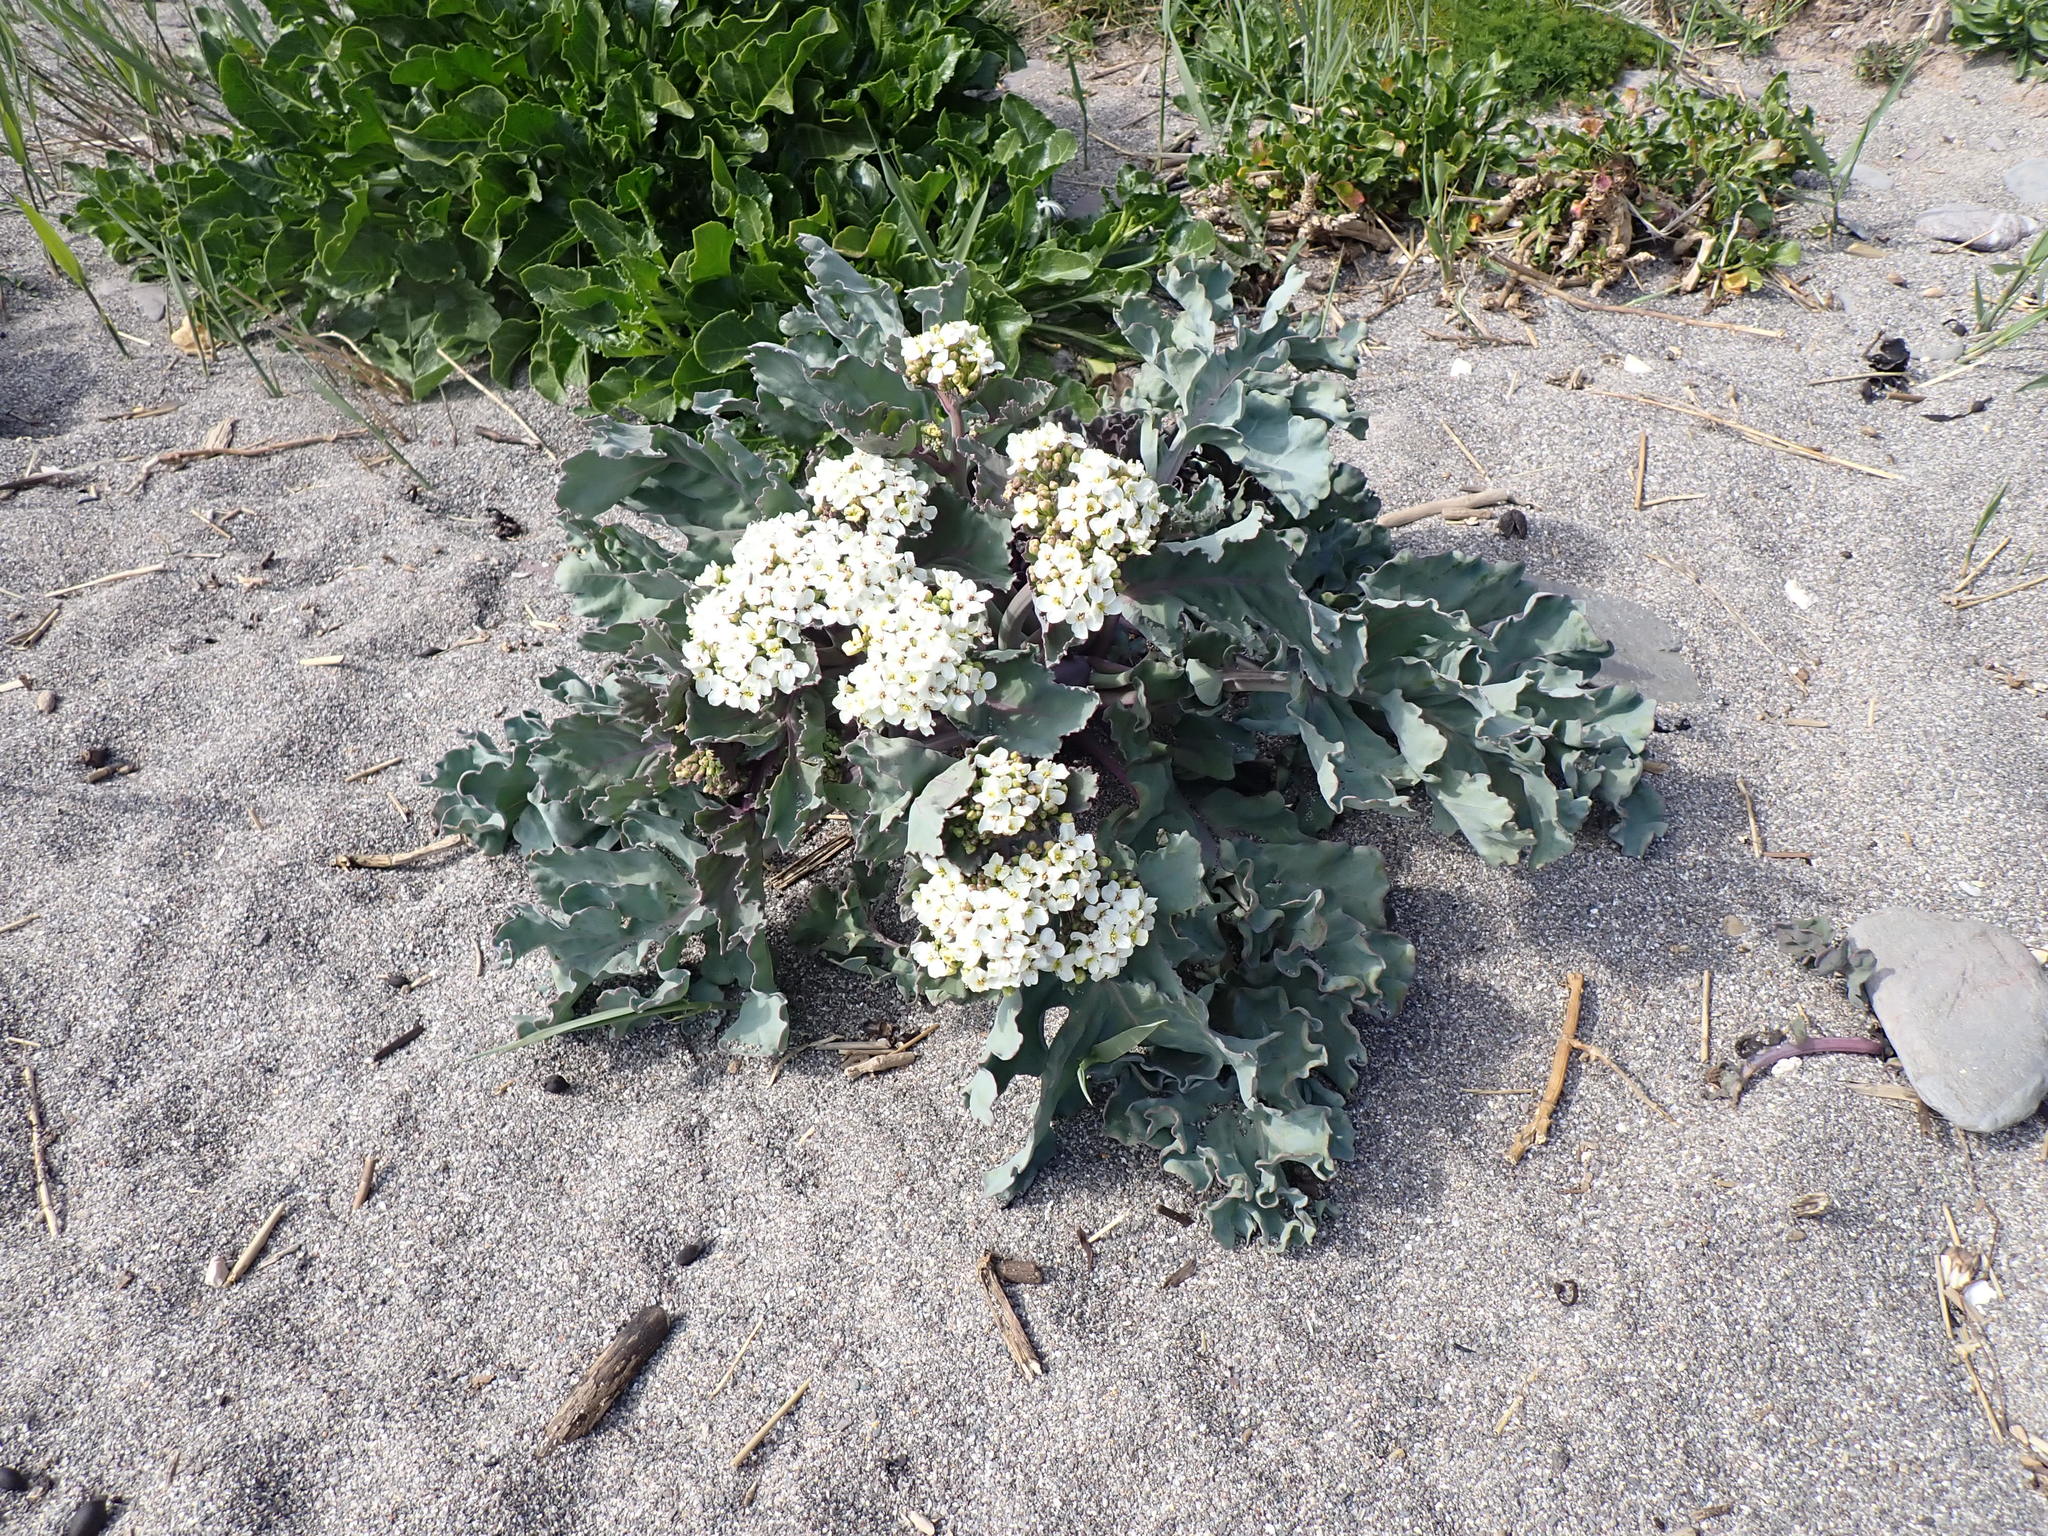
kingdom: Plantae
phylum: Tracheophyta
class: Magnoliopsida
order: Brassicales
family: Brassicaceae
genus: Crambe
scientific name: Crambe maritima
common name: Sea-kale
